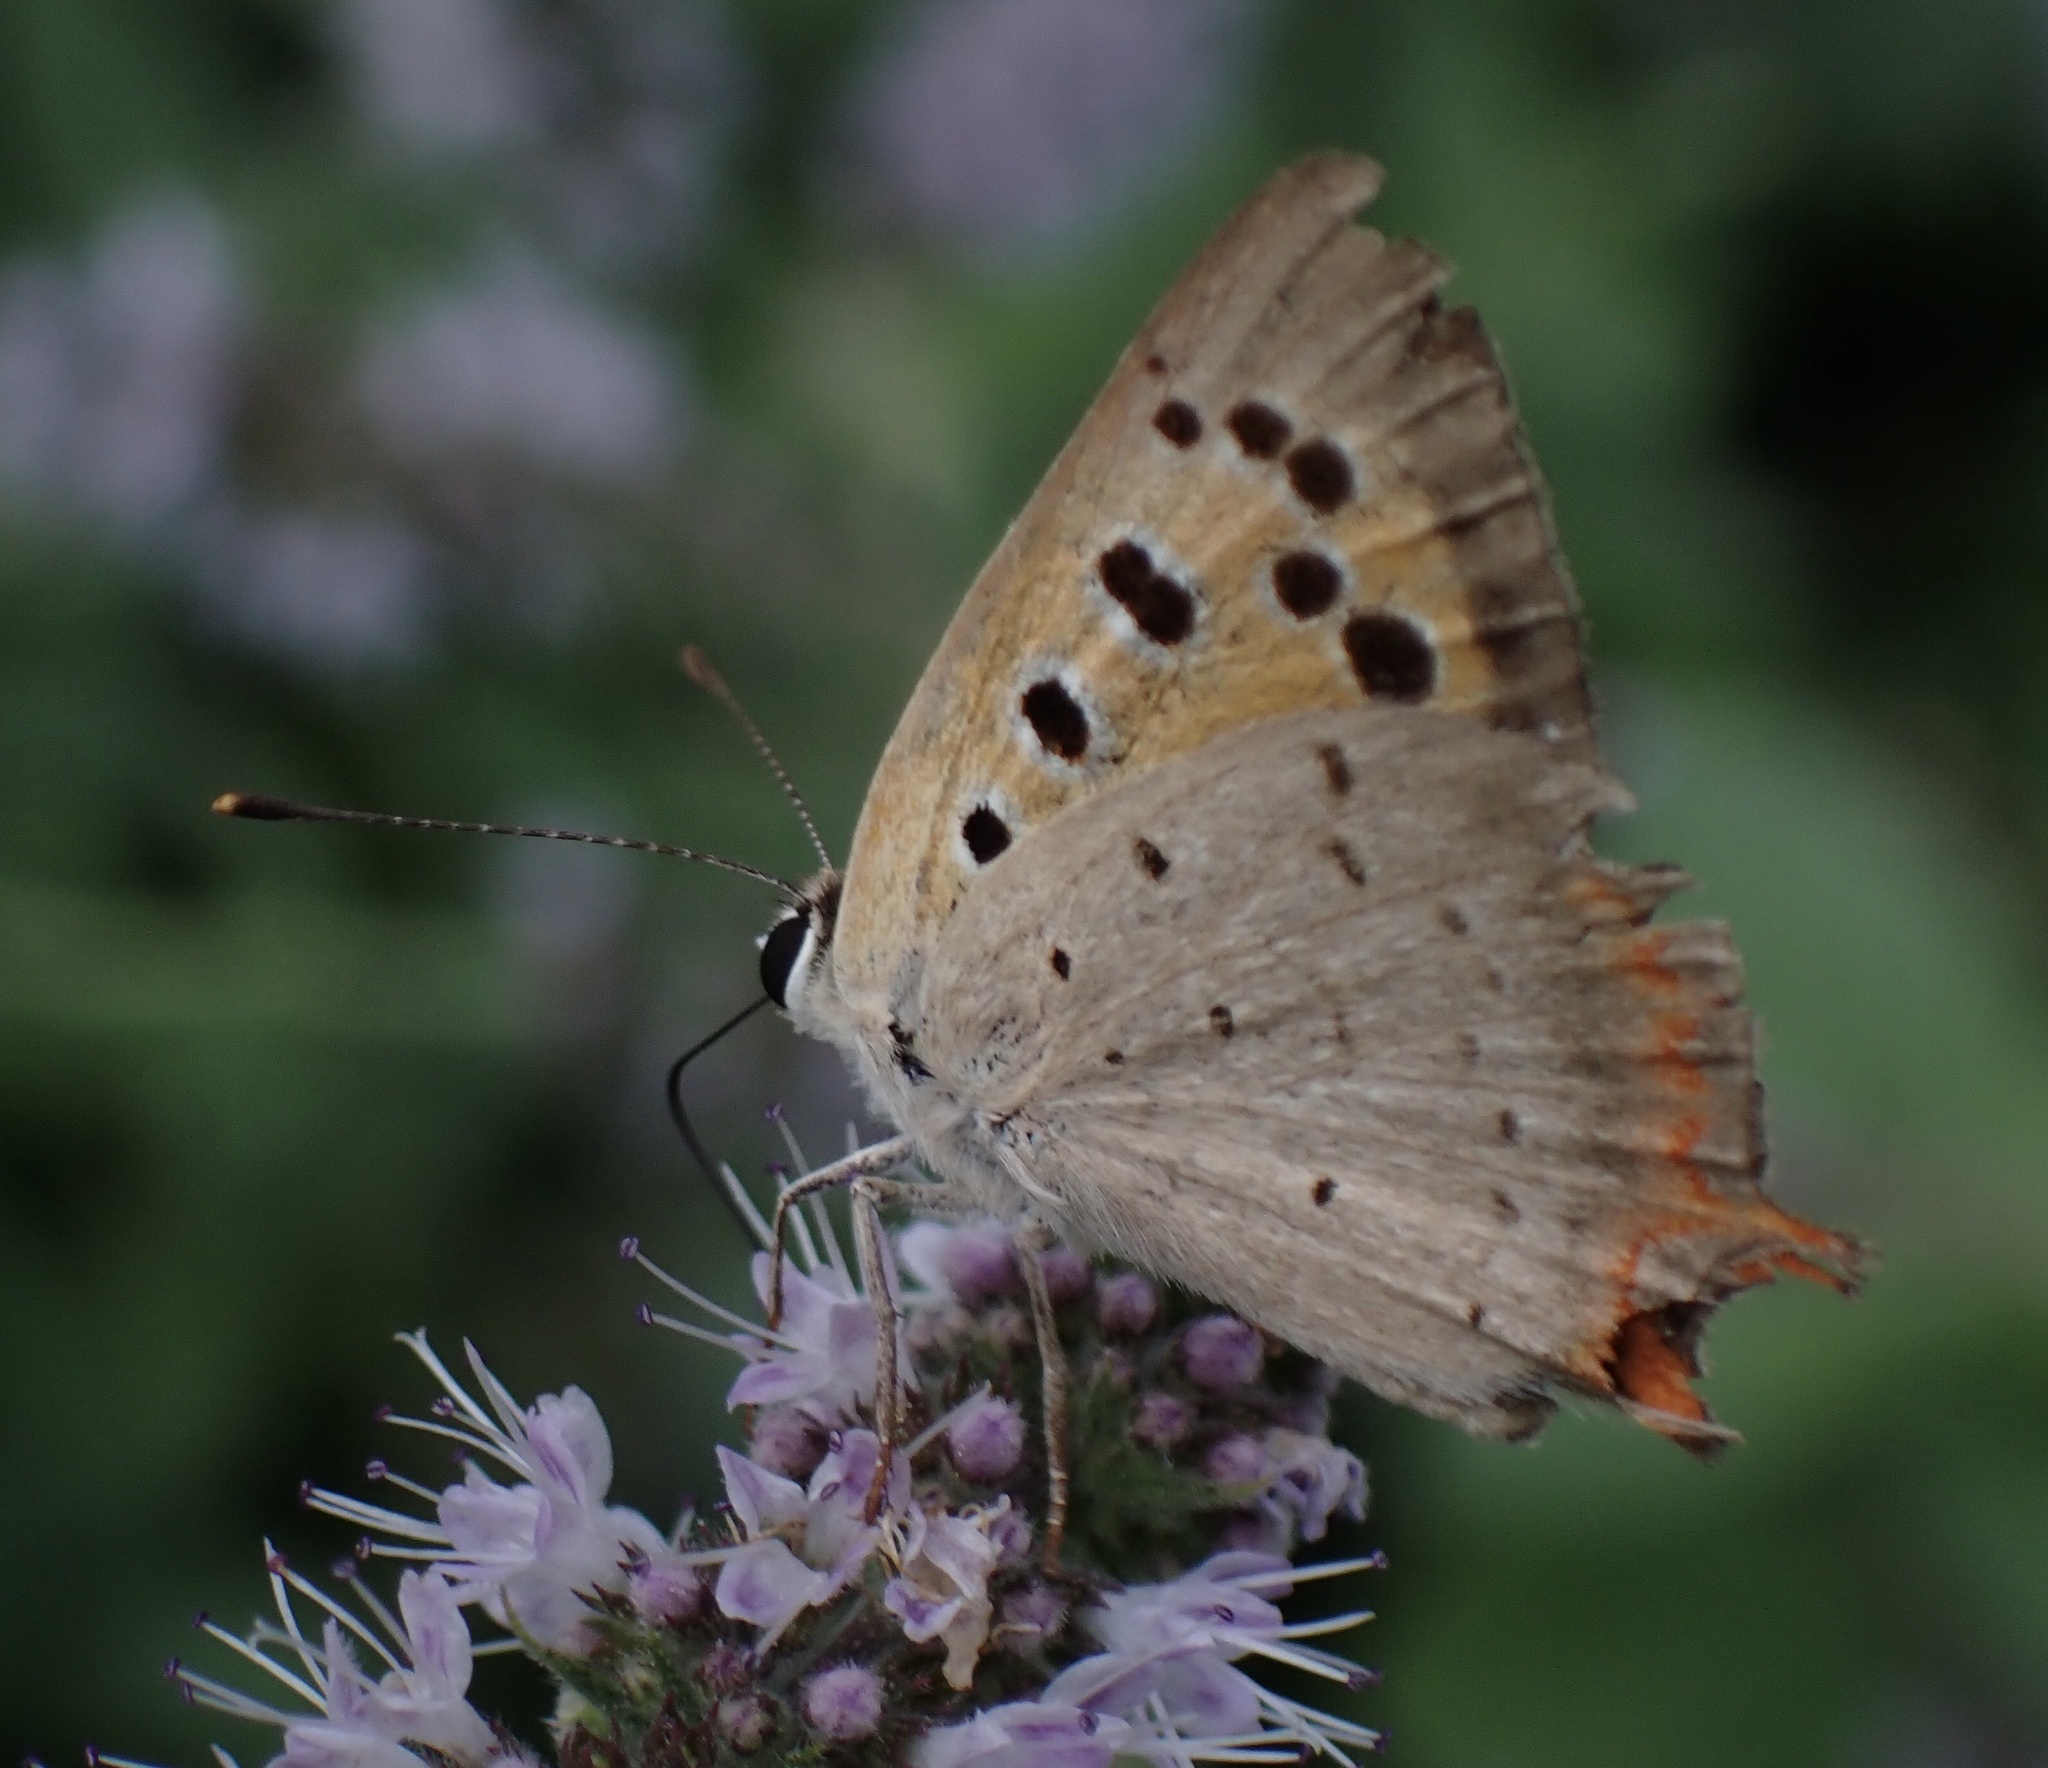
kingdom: Animalia
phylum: Arthropoda
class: Insecta
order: Lepidoptera
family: Lycaenidae
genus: Lycaena
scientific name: Lycaena phlaeas
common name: Small copper
